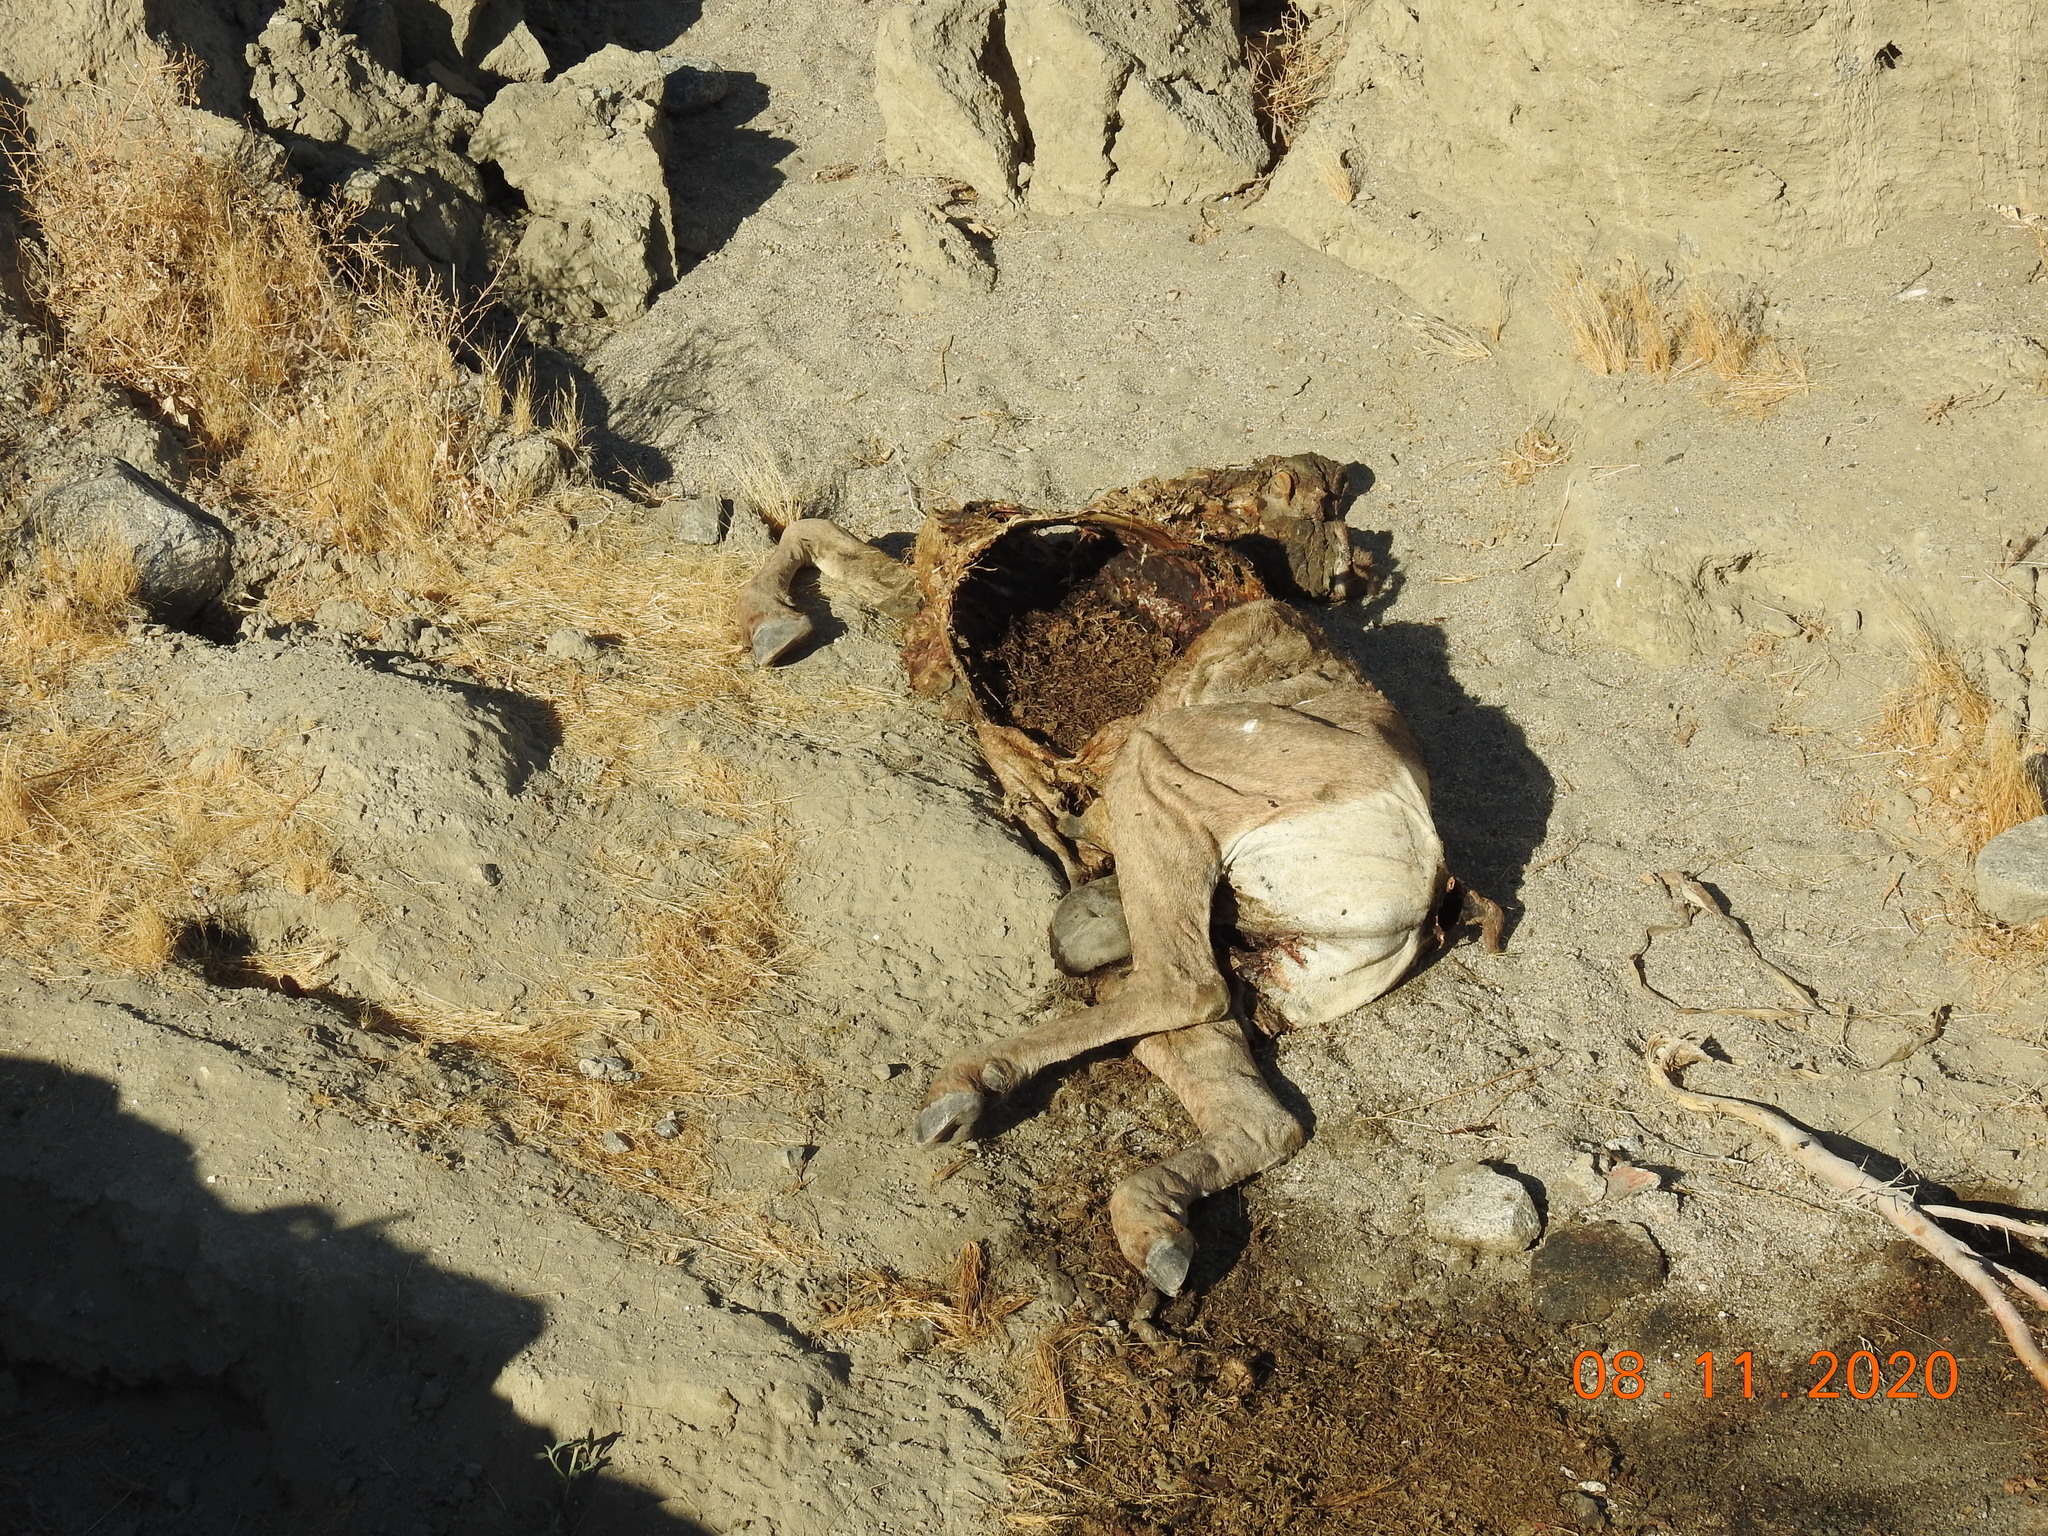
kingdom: Animalia
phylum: Chordata
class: Mammalia
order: Artiodactyla
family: Bovidae
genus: Ovis
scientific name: Ovis canadensis
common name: Bighorn sheep
